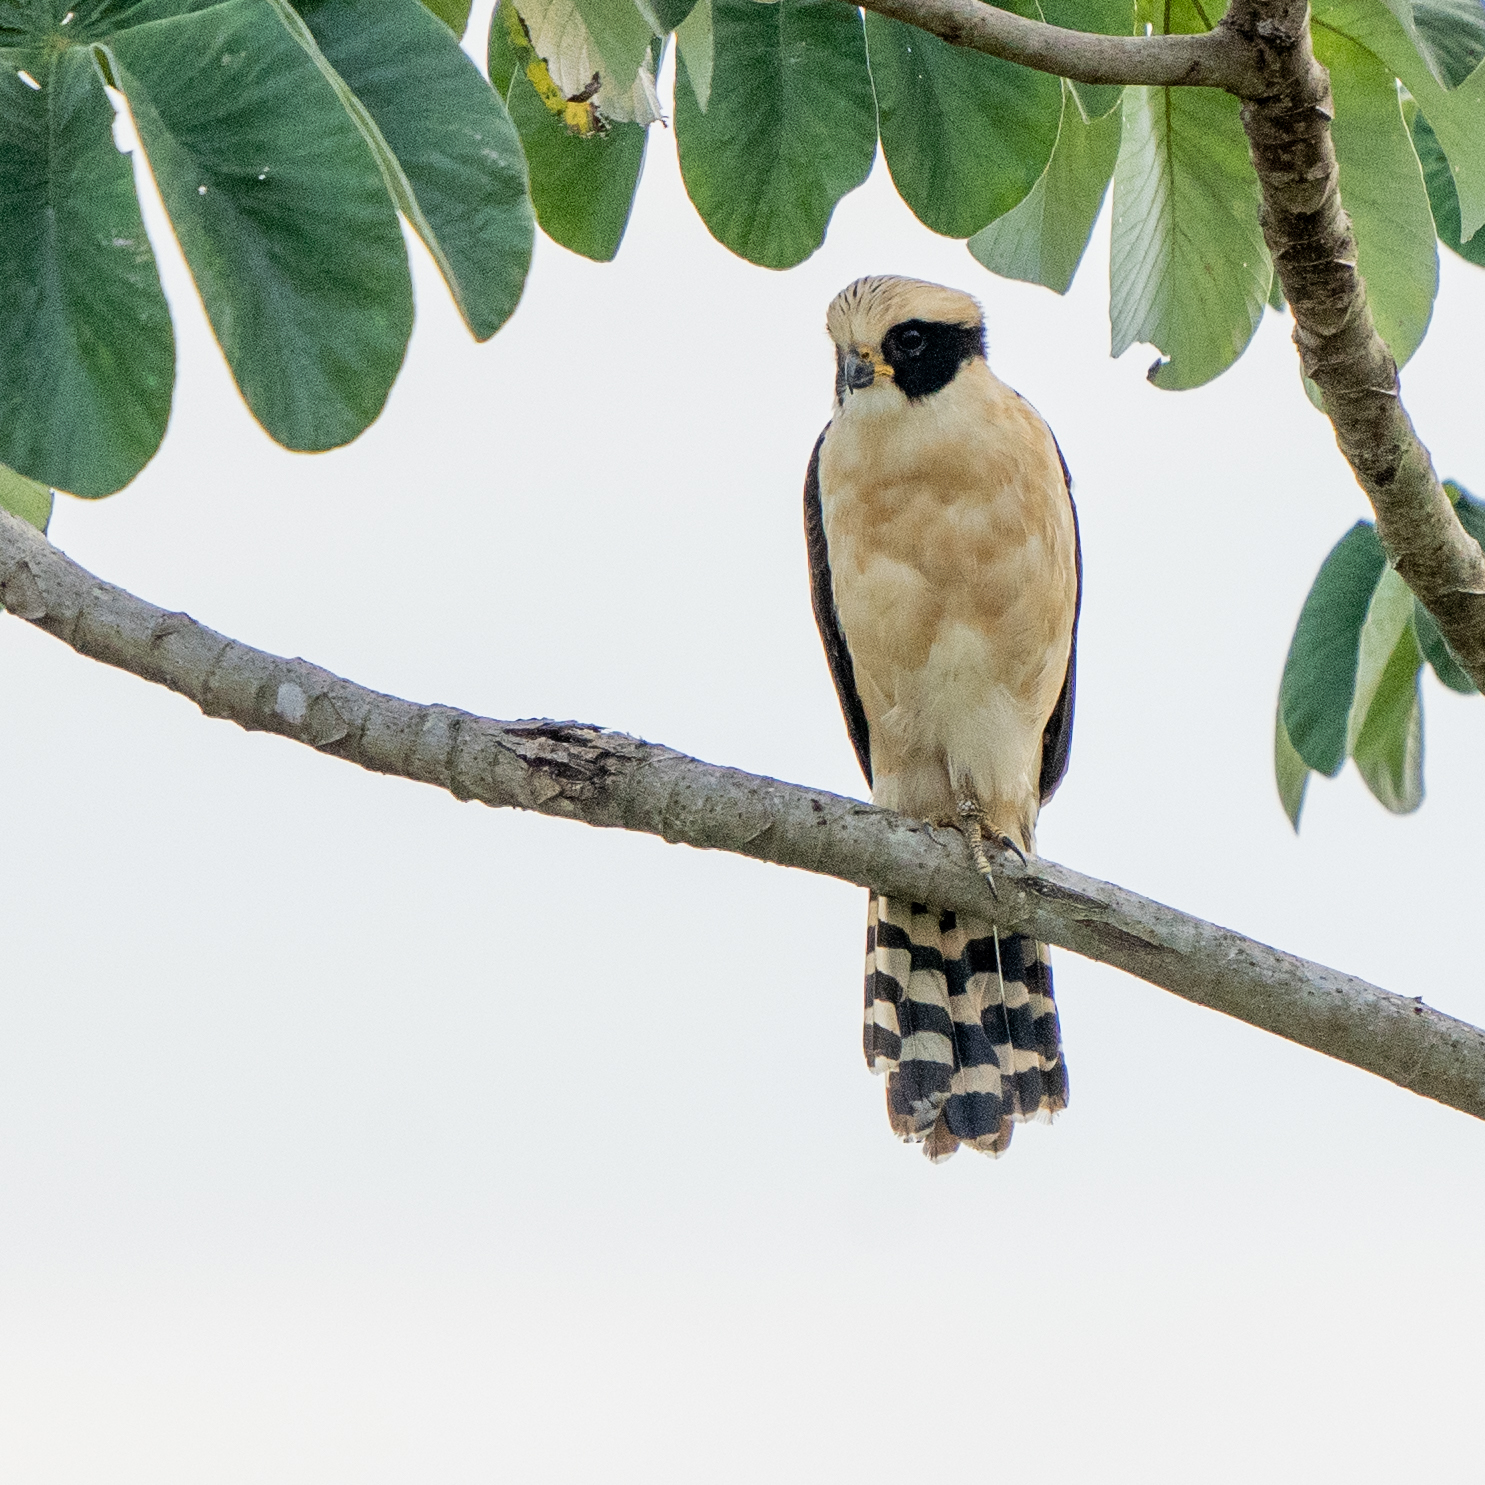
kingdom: Animalia
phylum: Chordata
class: Aves
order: Falconiformes
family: Falconidae
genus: Herpetotheres
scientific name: Herpetotheres cachinnans
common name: Laughing falcon
